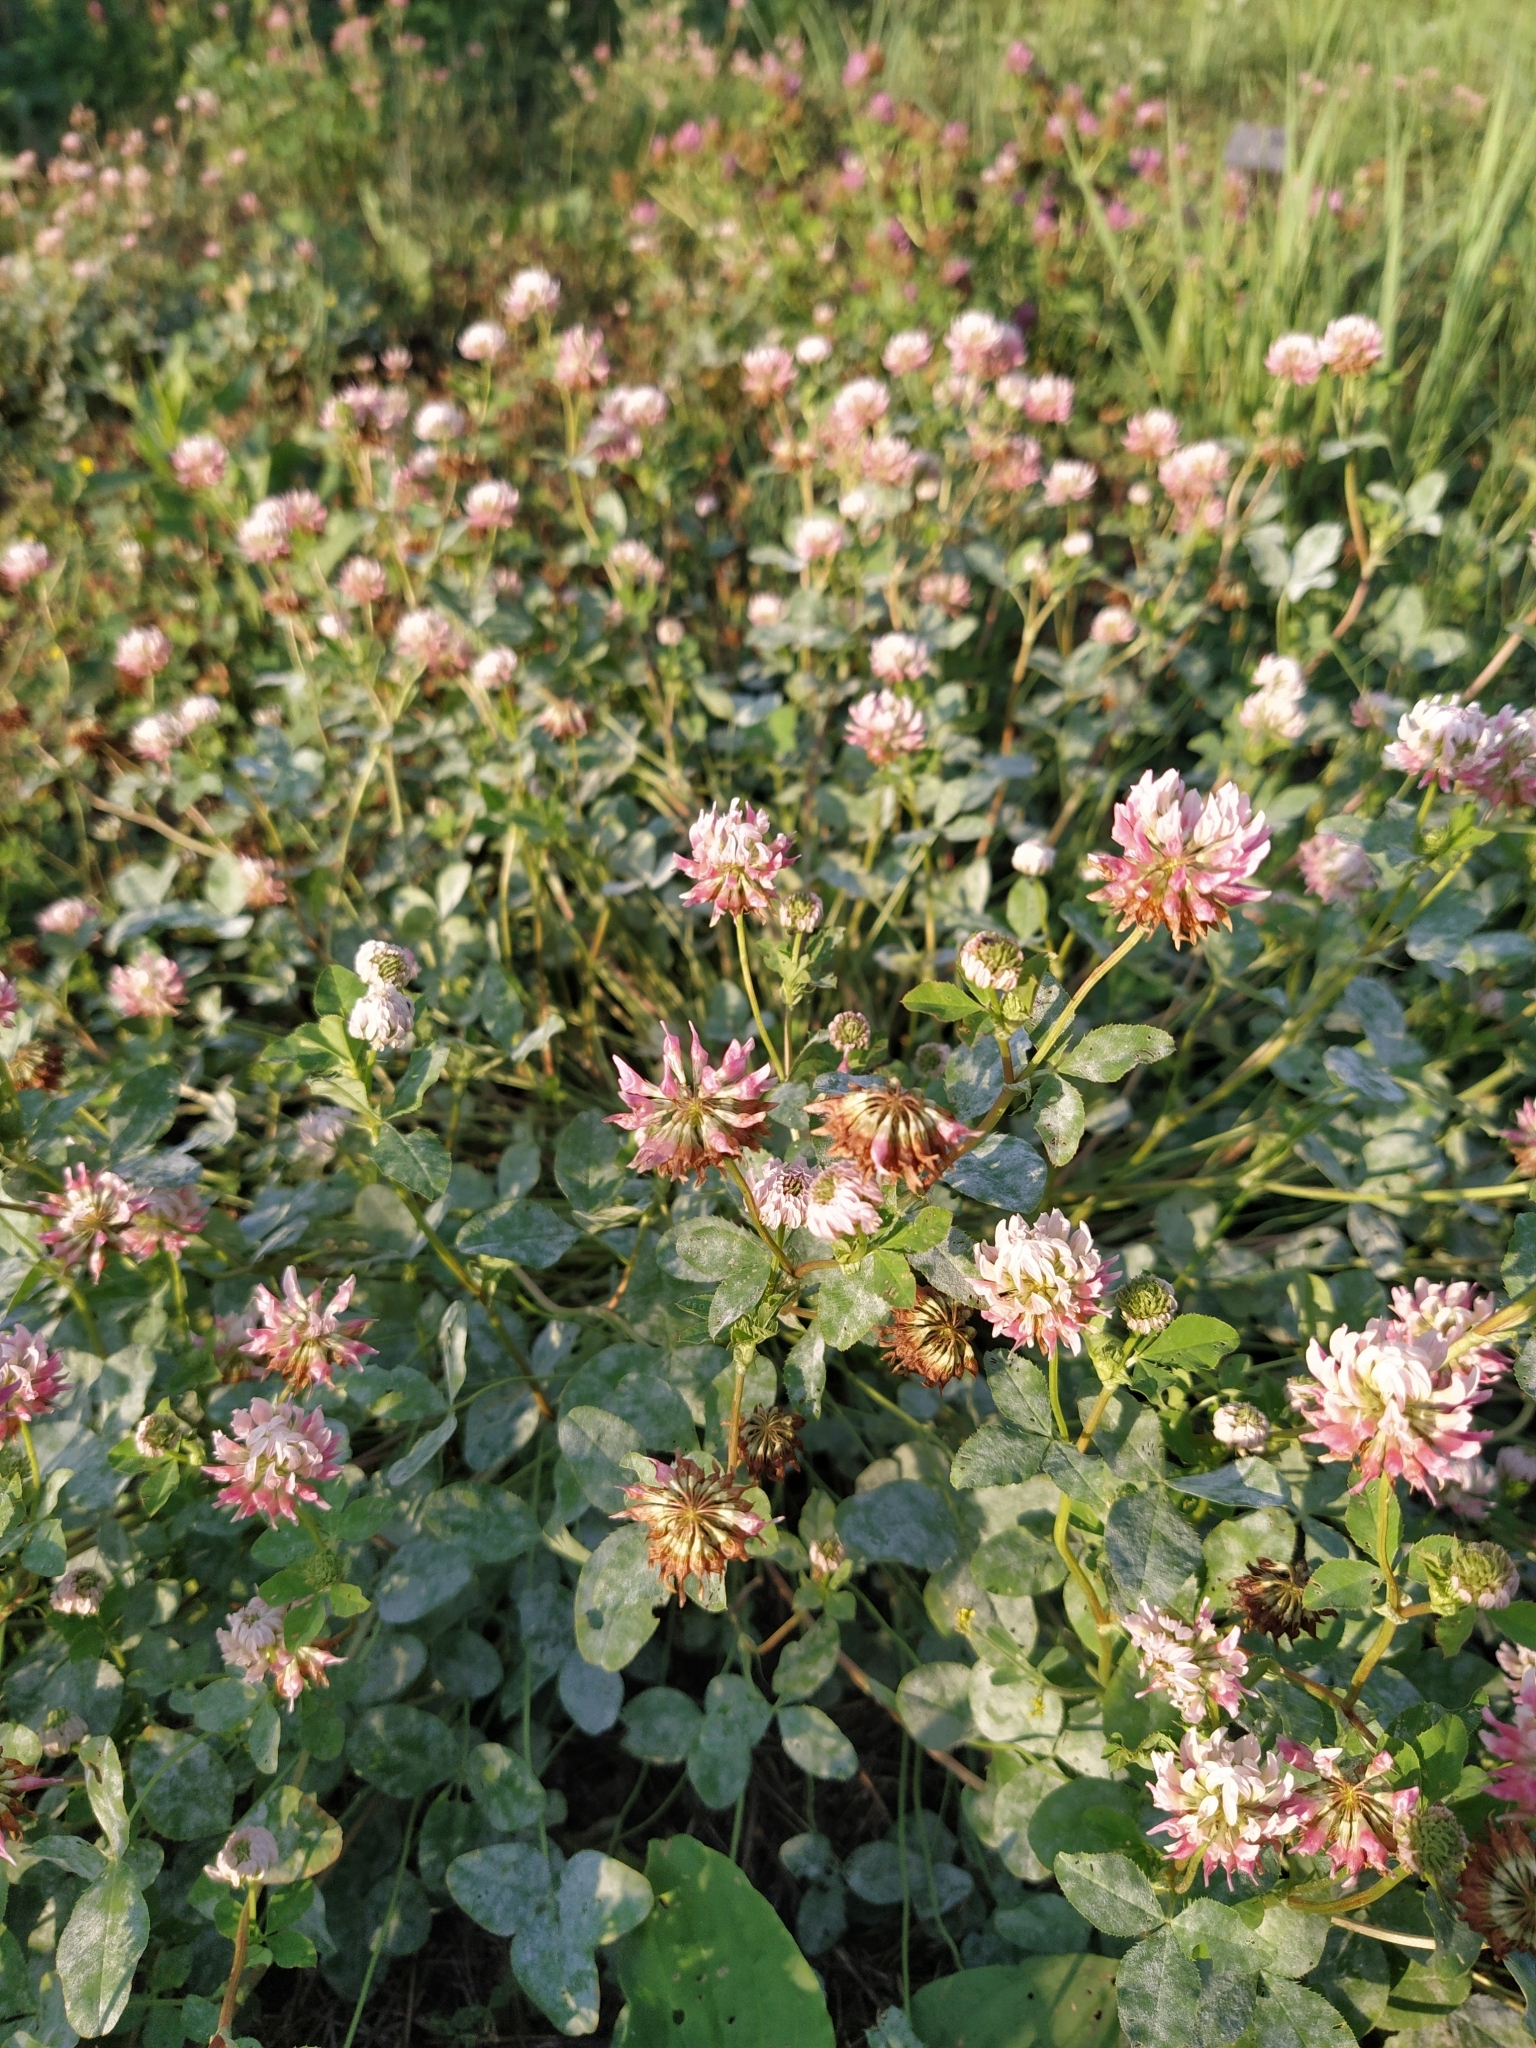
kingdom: Plantae
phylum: Tracheophyta
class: Magnoliopsida
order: Fabales
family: Fabaceae
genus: Trifolium
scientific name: Trifolium hybridum
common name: Alsike clover
